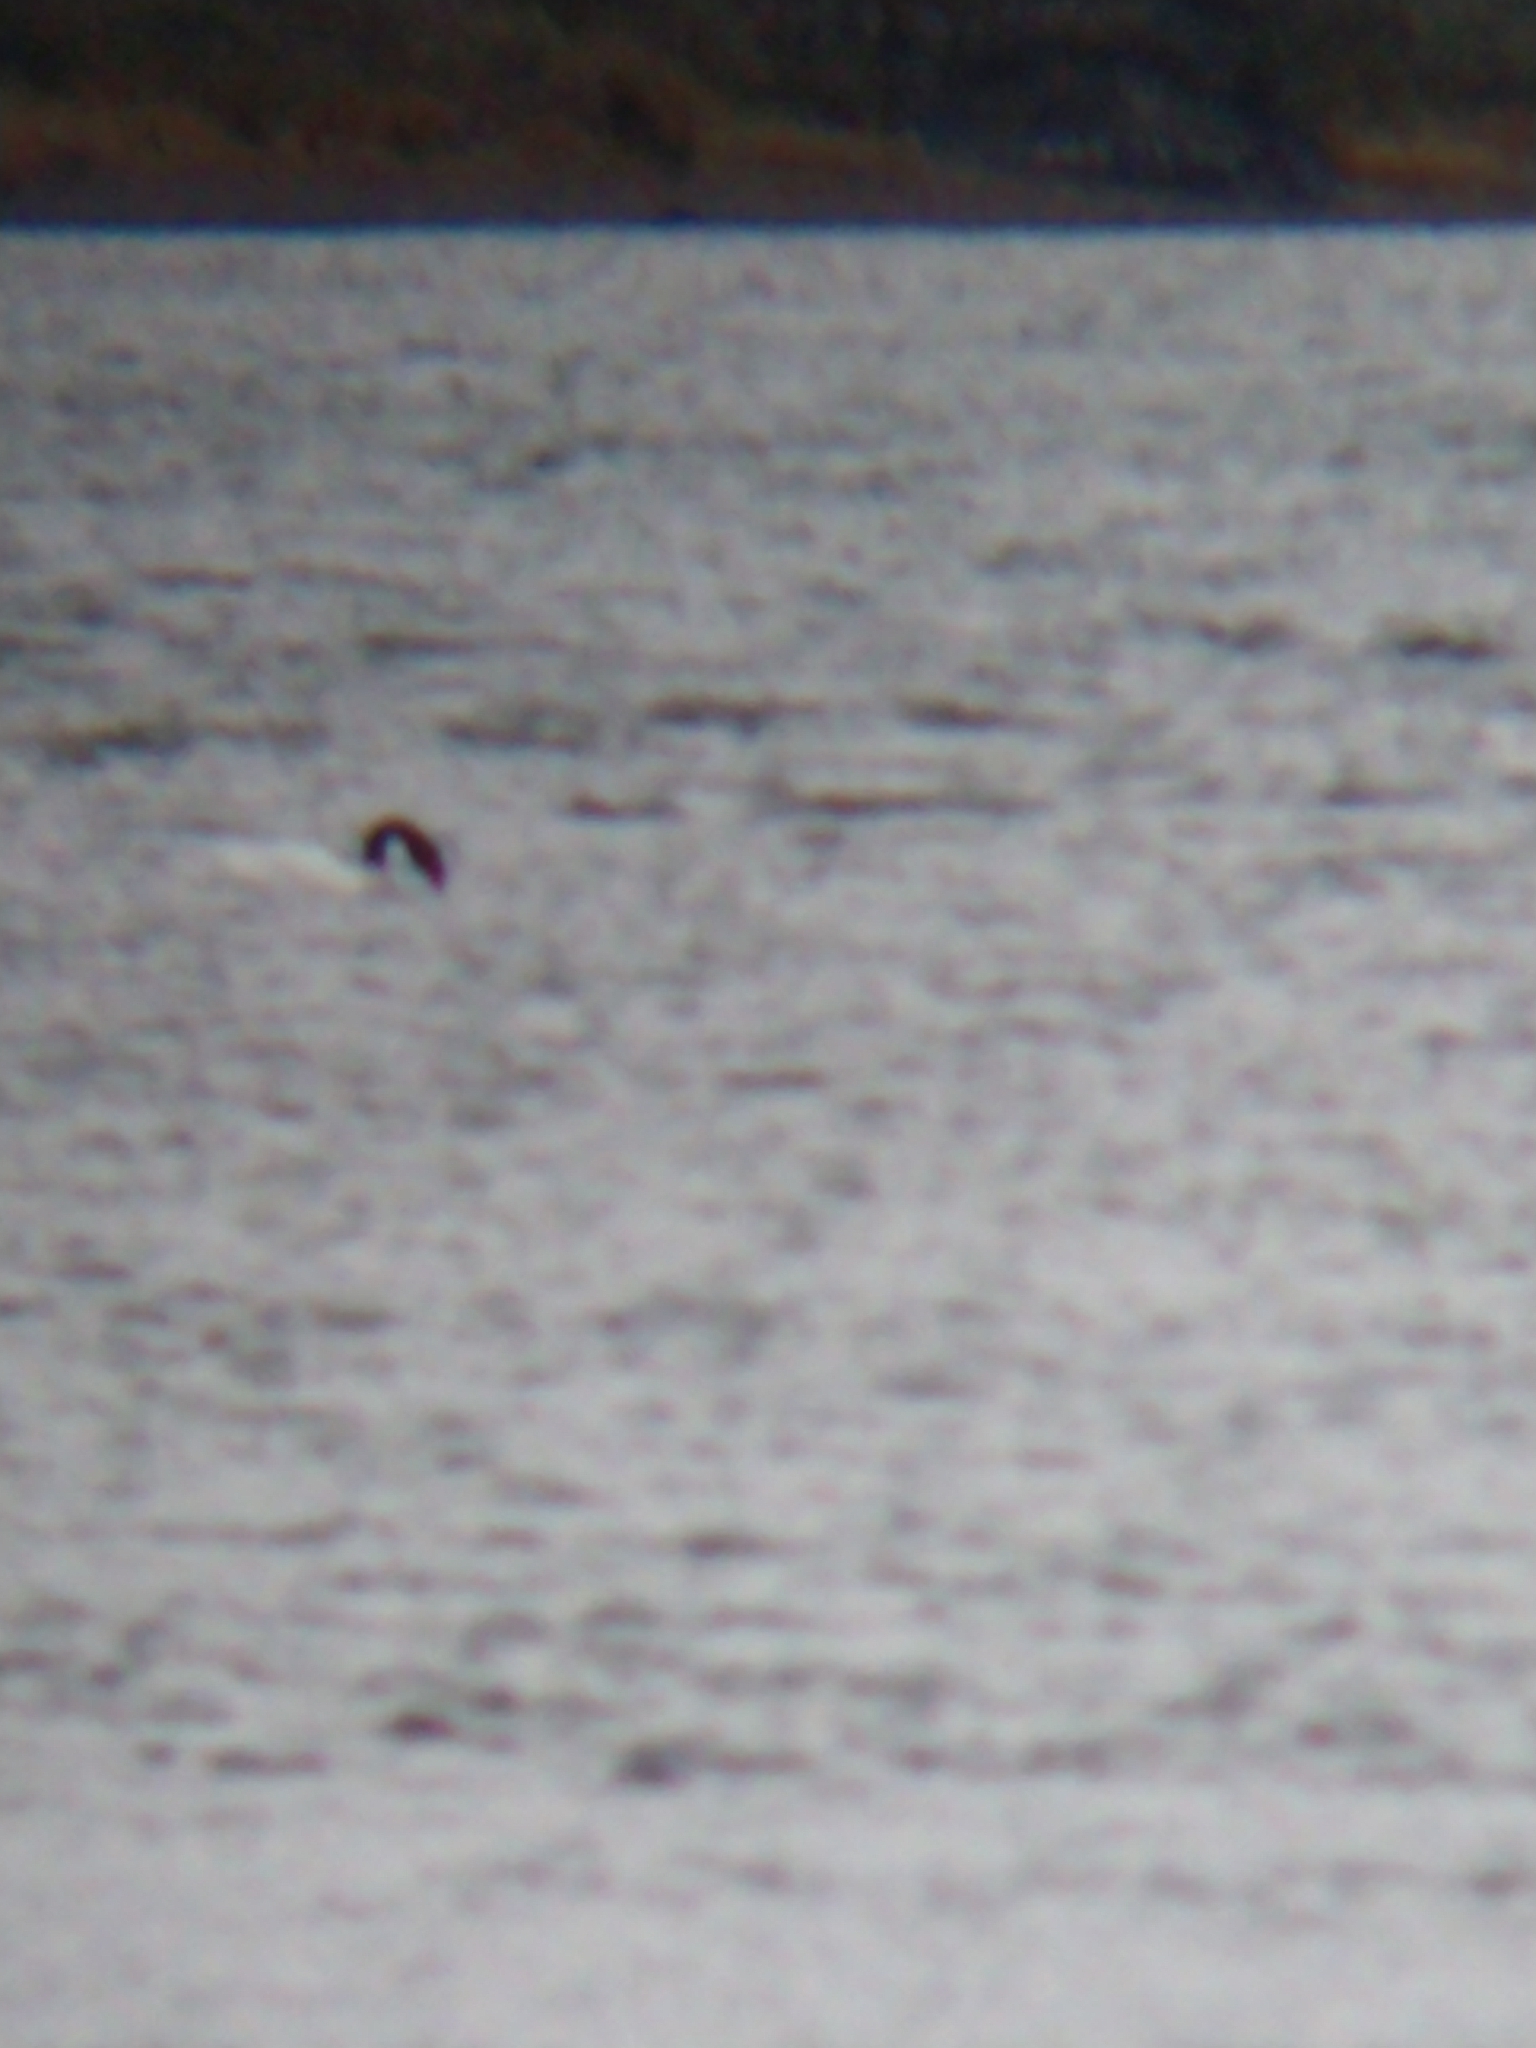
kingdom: Animalia
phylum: Chordata
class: Aves
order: Anseriformes
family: Anatidae
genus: Cygnus
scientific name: Cygnus melancoryphus
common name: Black-necked swan
